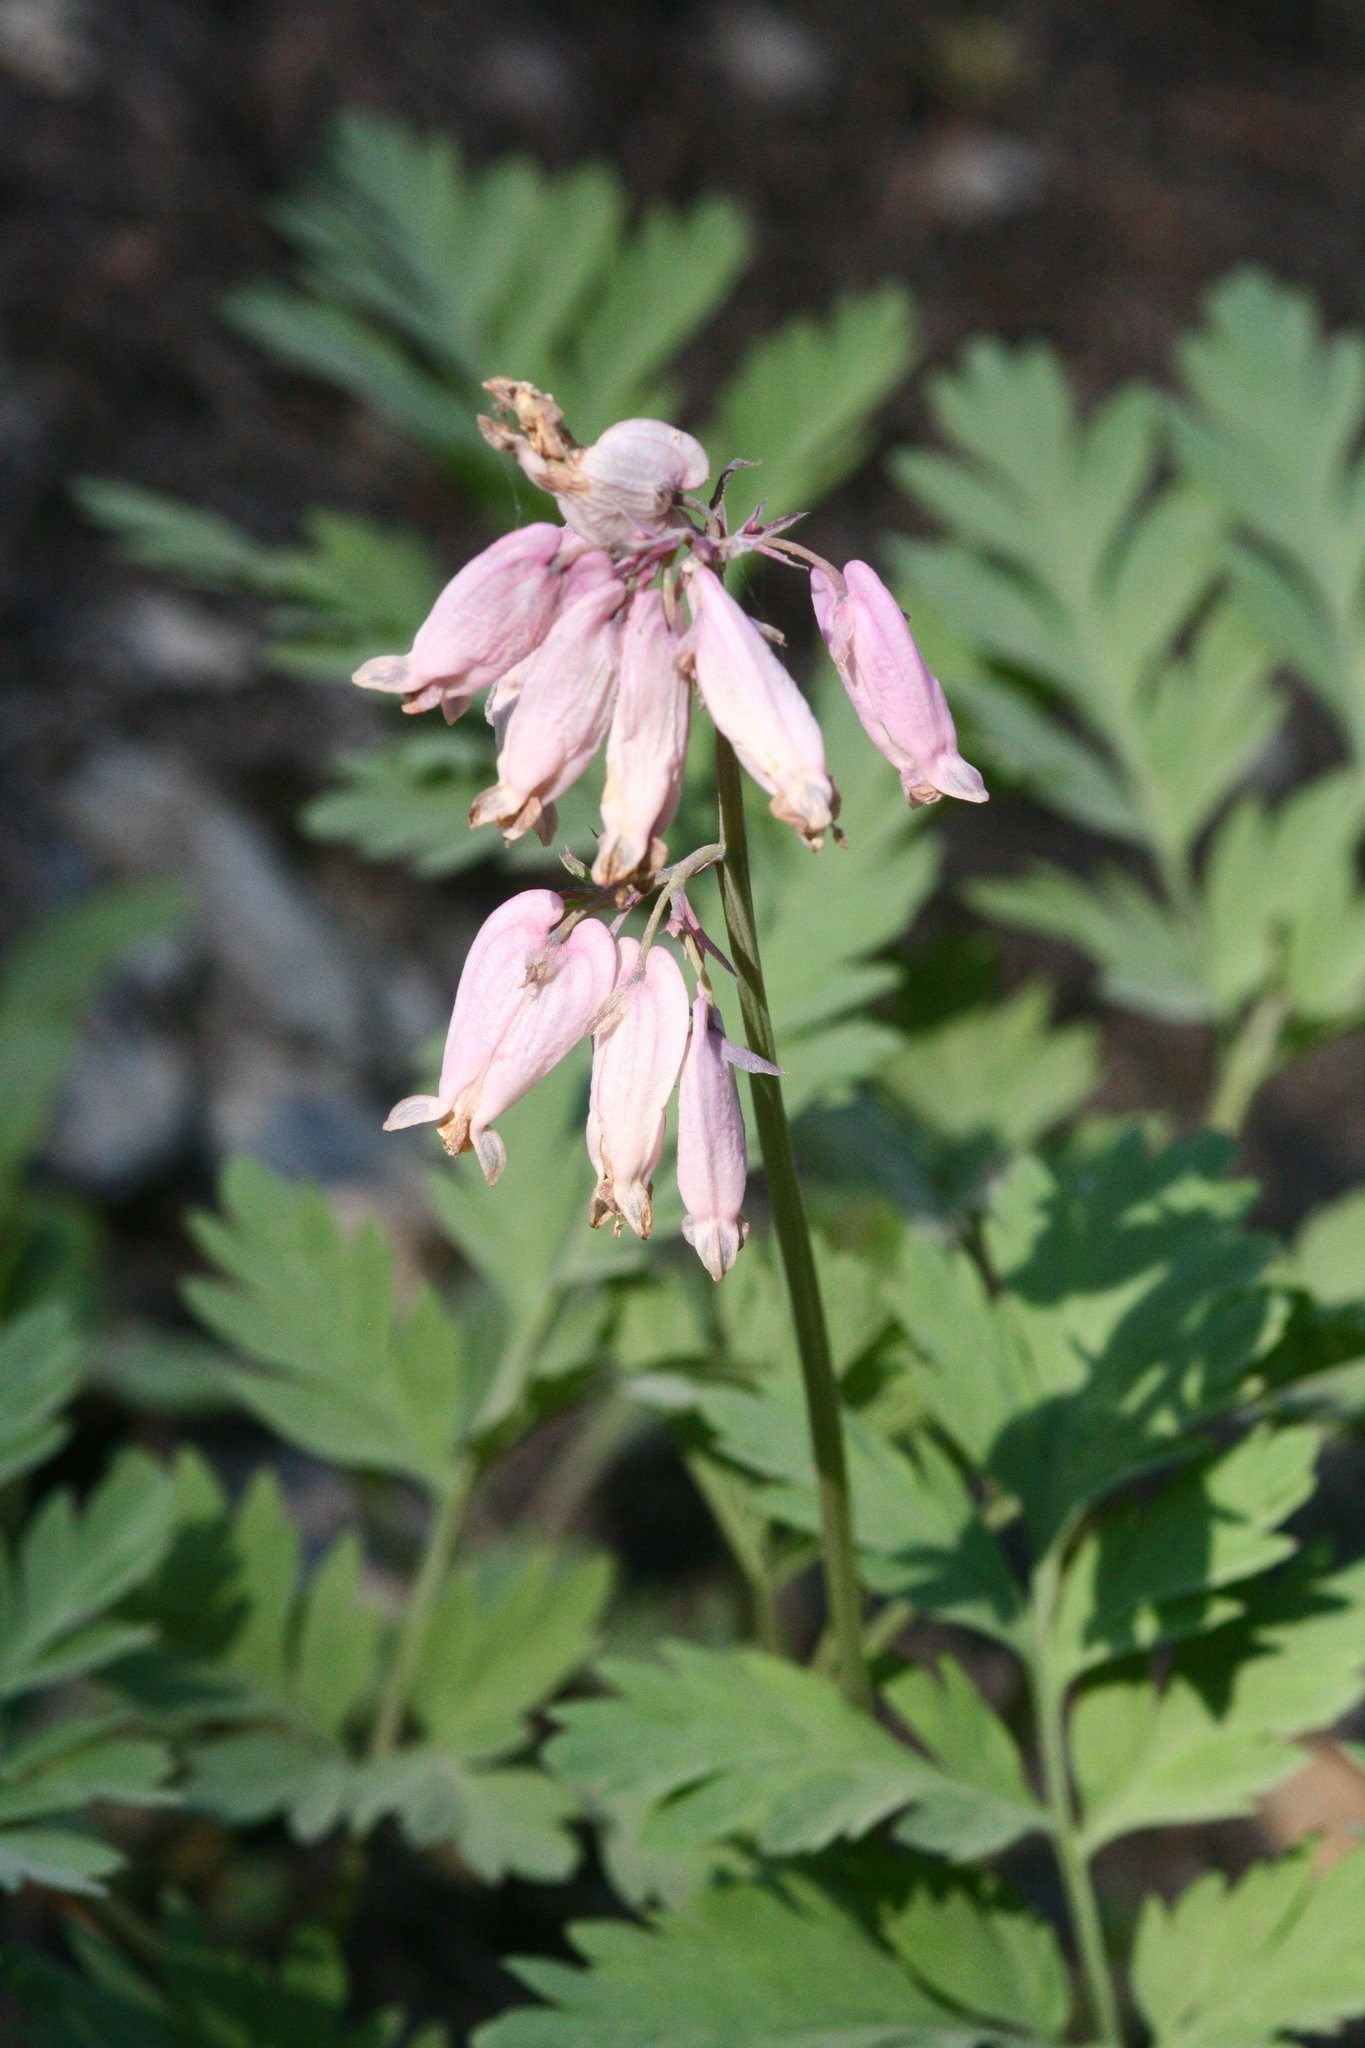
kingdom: Plantae
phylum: Tracheophyta
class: Magnoliopsida
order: Ranunculales
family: Papaveraceae
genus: Dicentra
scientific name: Dicentra formosa
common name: Bleeding-heart
